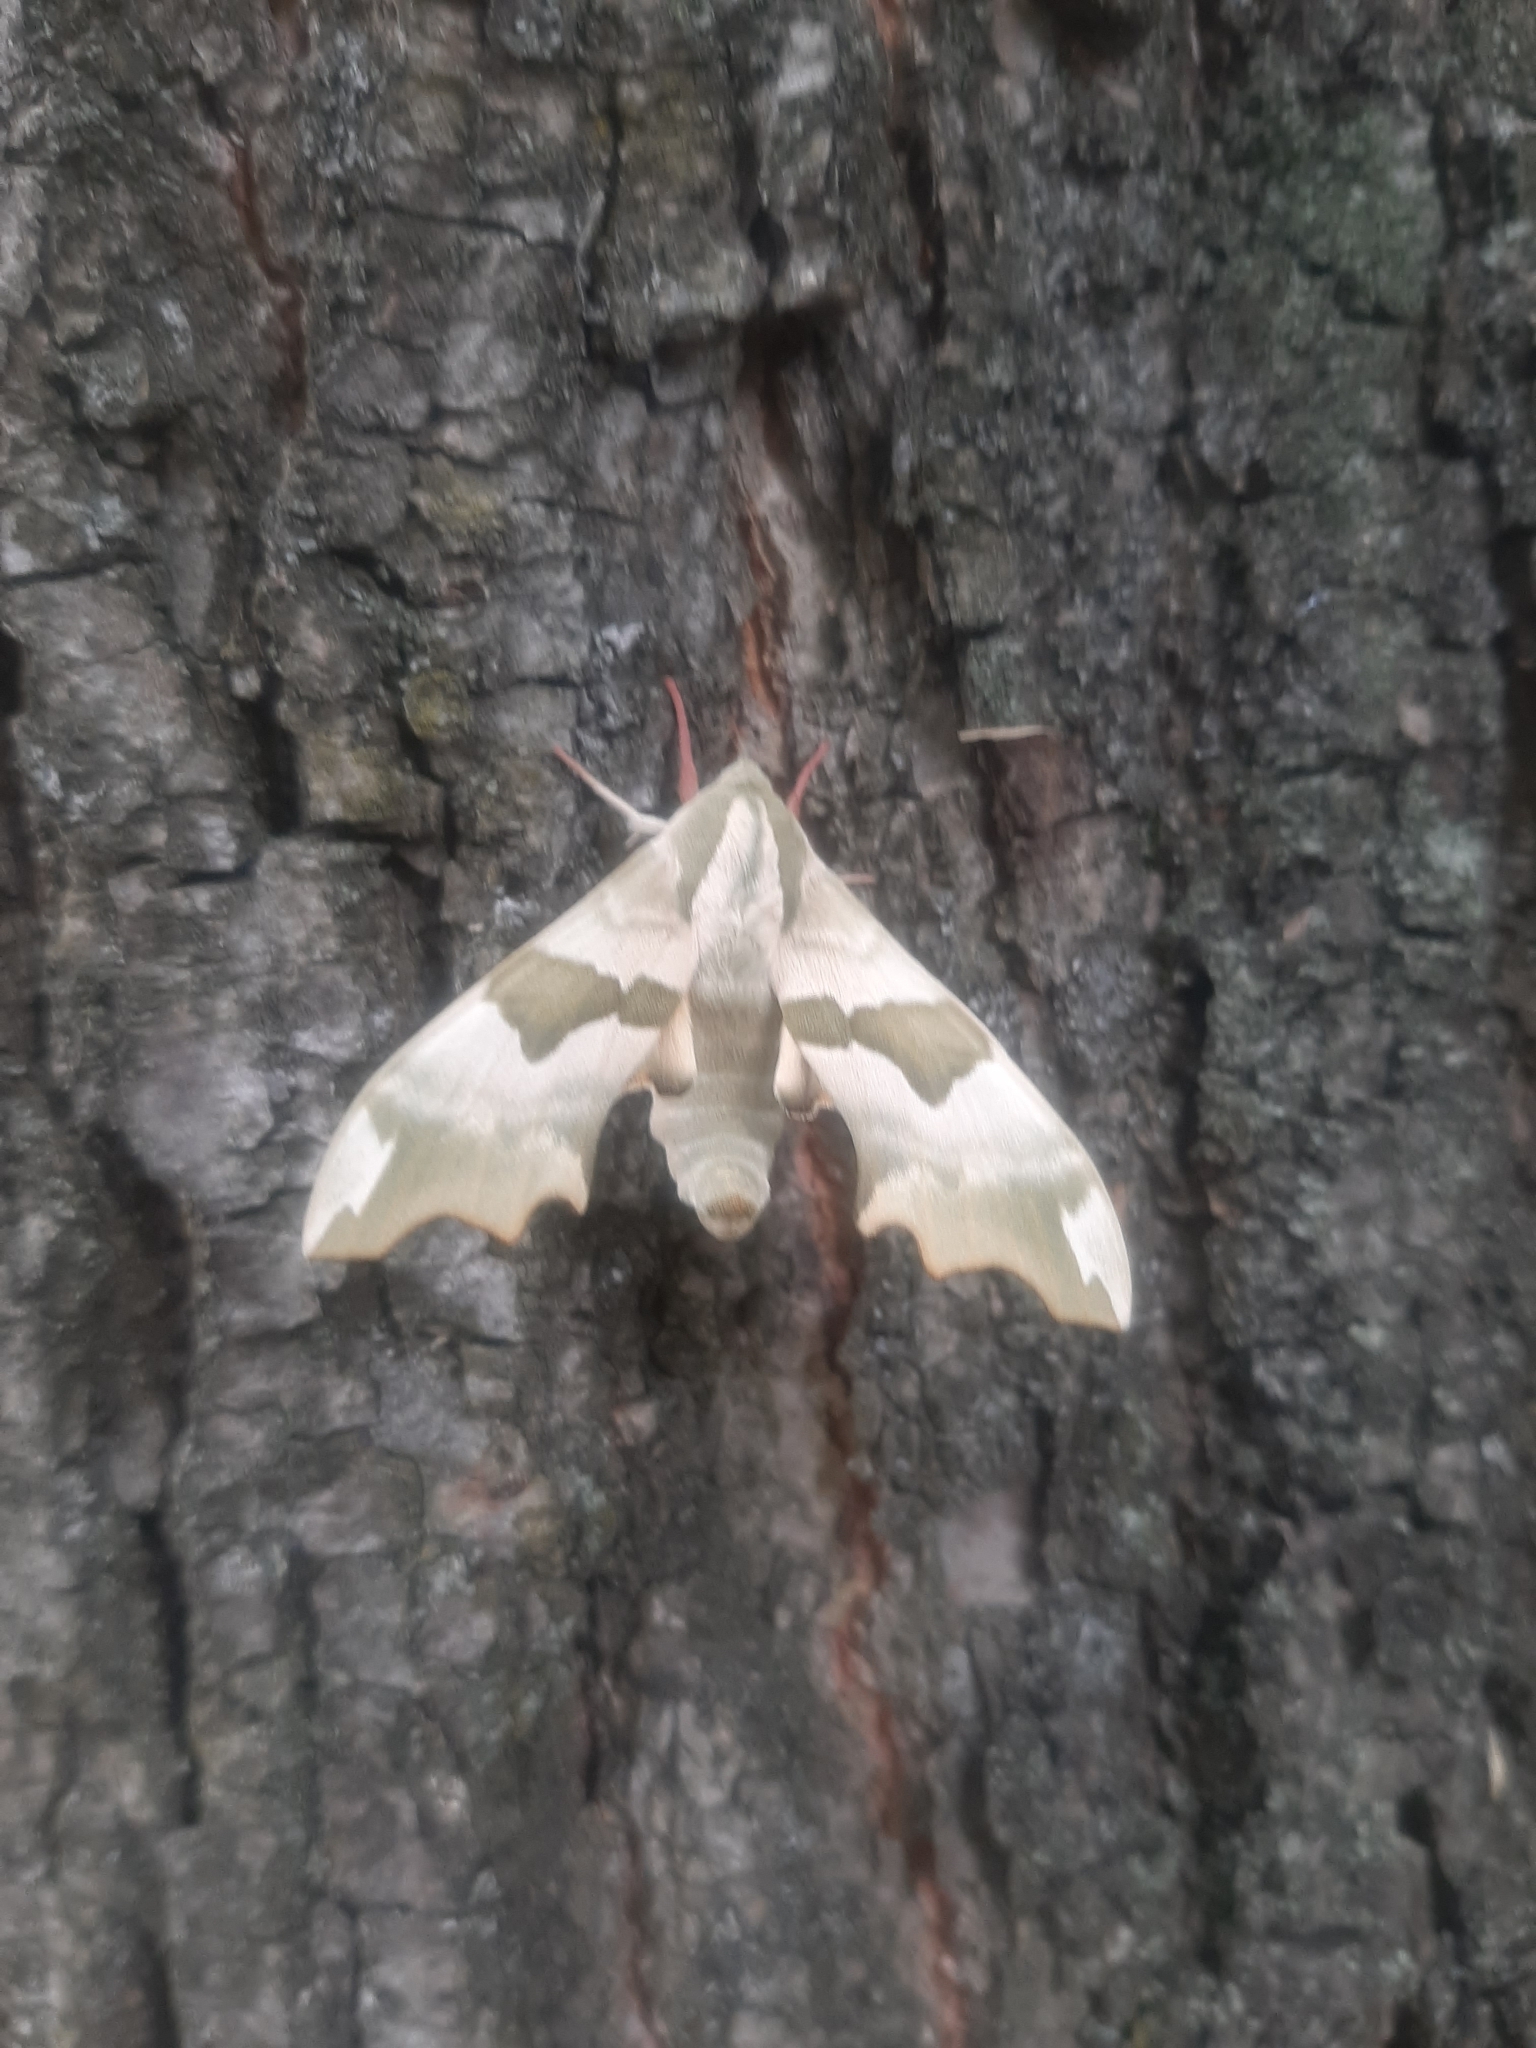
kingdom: Animalia
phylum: Arthropoda
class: Insecta
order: Lepidoptera
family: Sphingidae
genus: Mimas
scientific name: Mimas tiliae
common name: Lime hawk-moth
